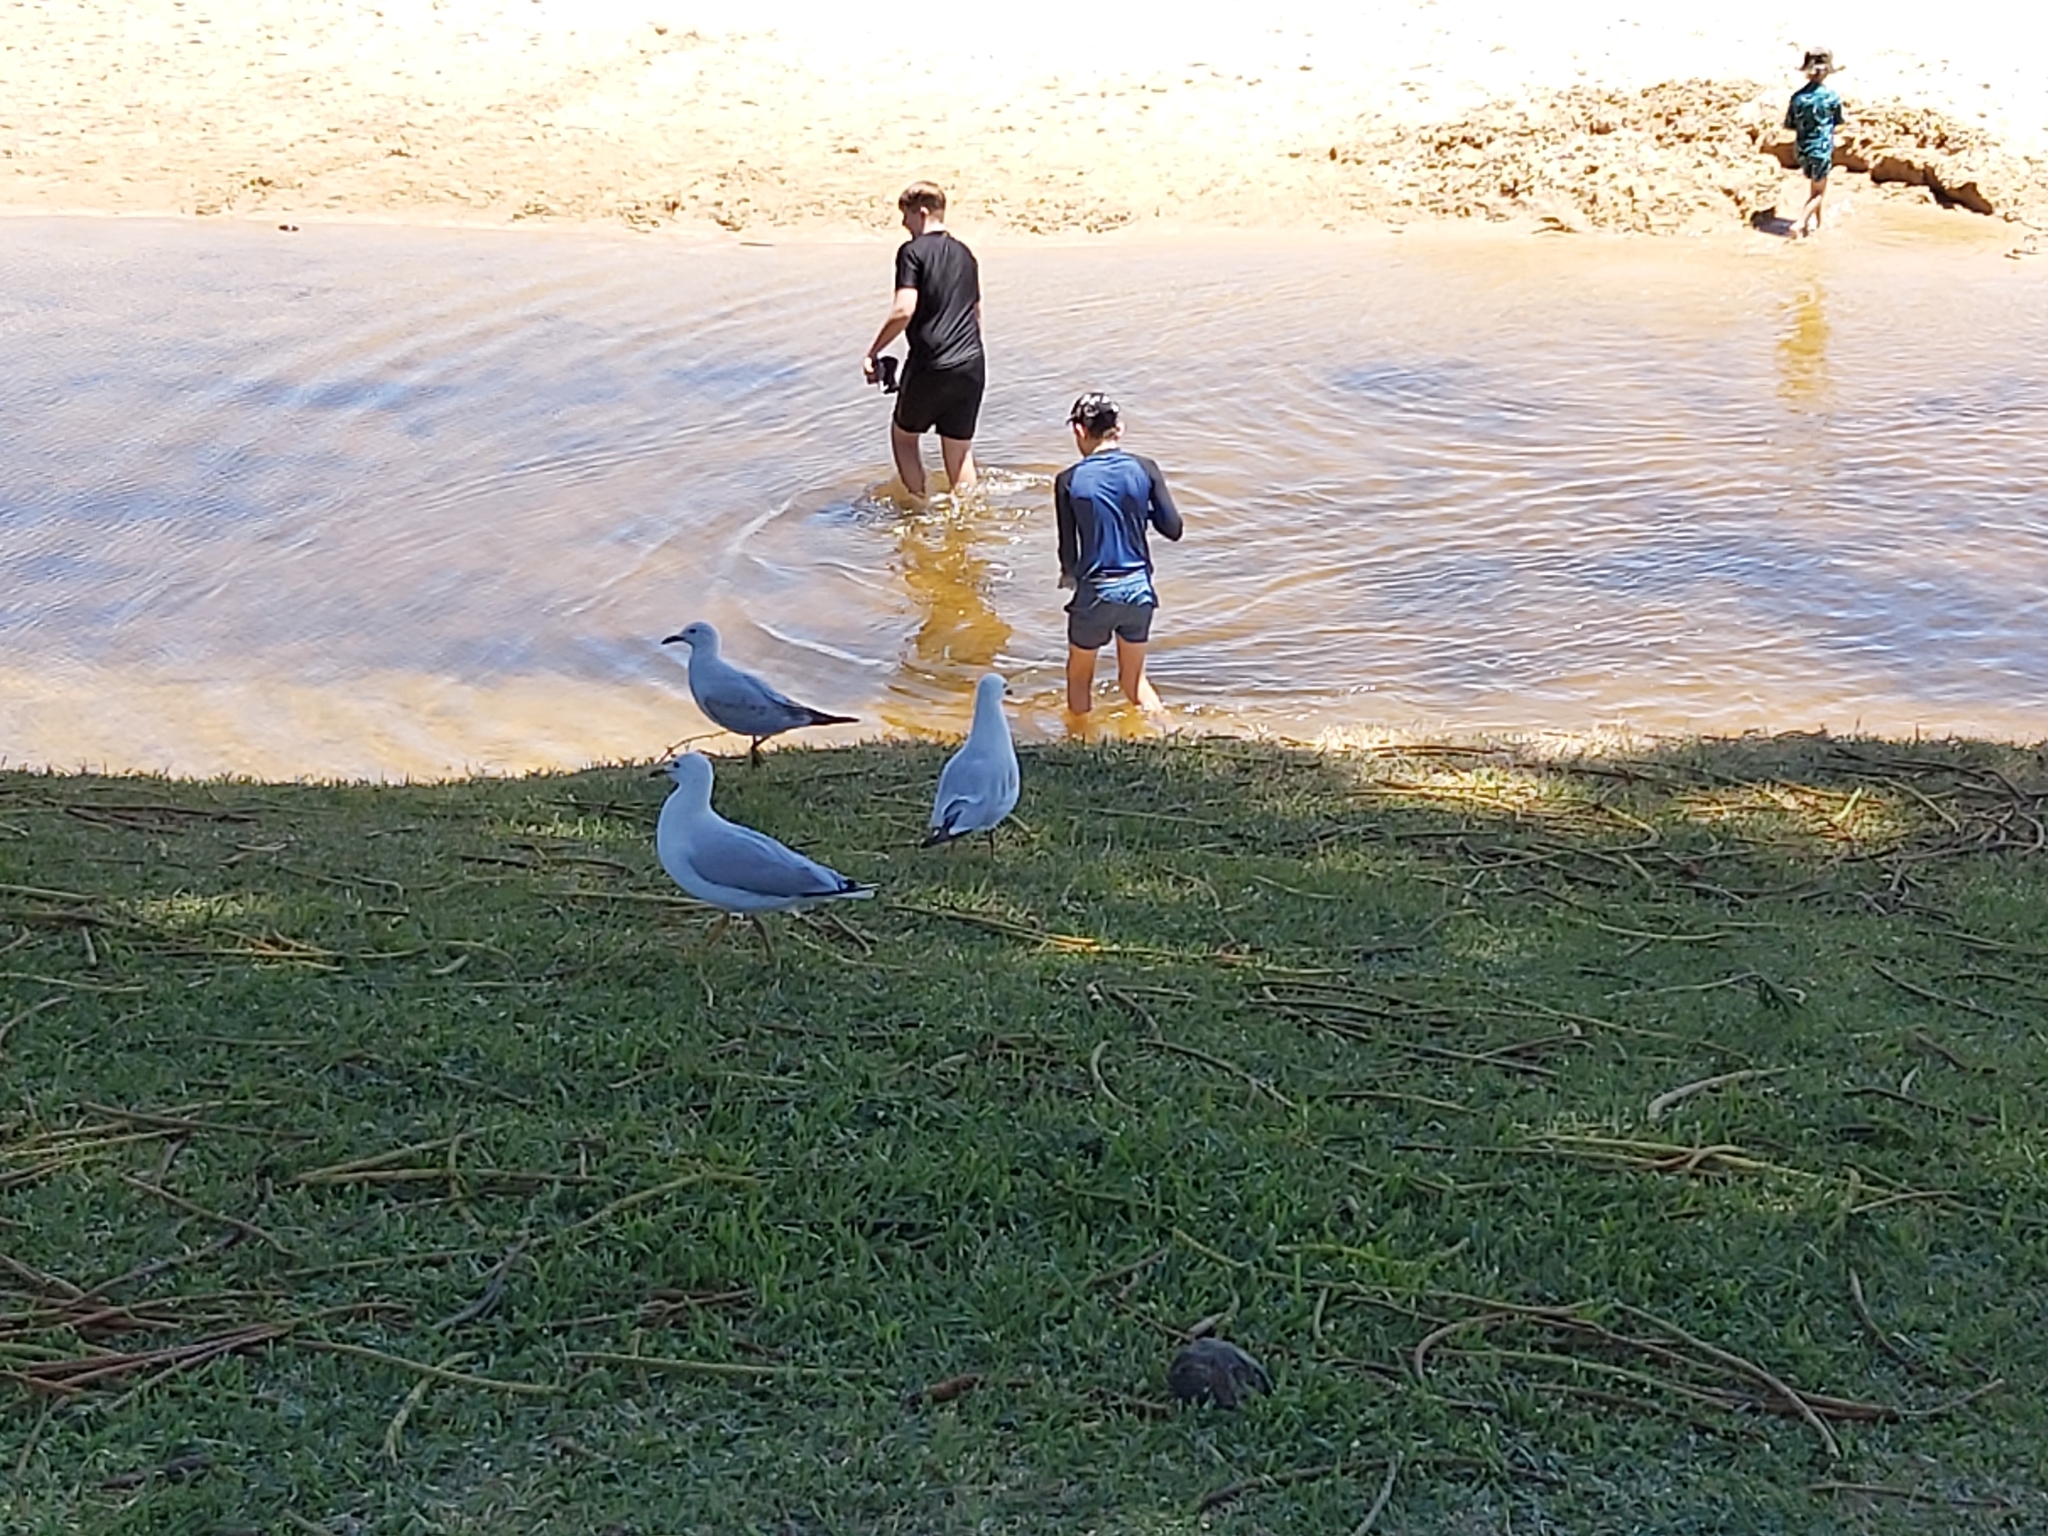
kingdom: Animalia
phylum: Chordata
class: Aves
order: Charadriiformes
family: Laridae
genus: Chroicocephalus
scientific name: Chroicocephalus novaehollandiae
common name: Silver gull
